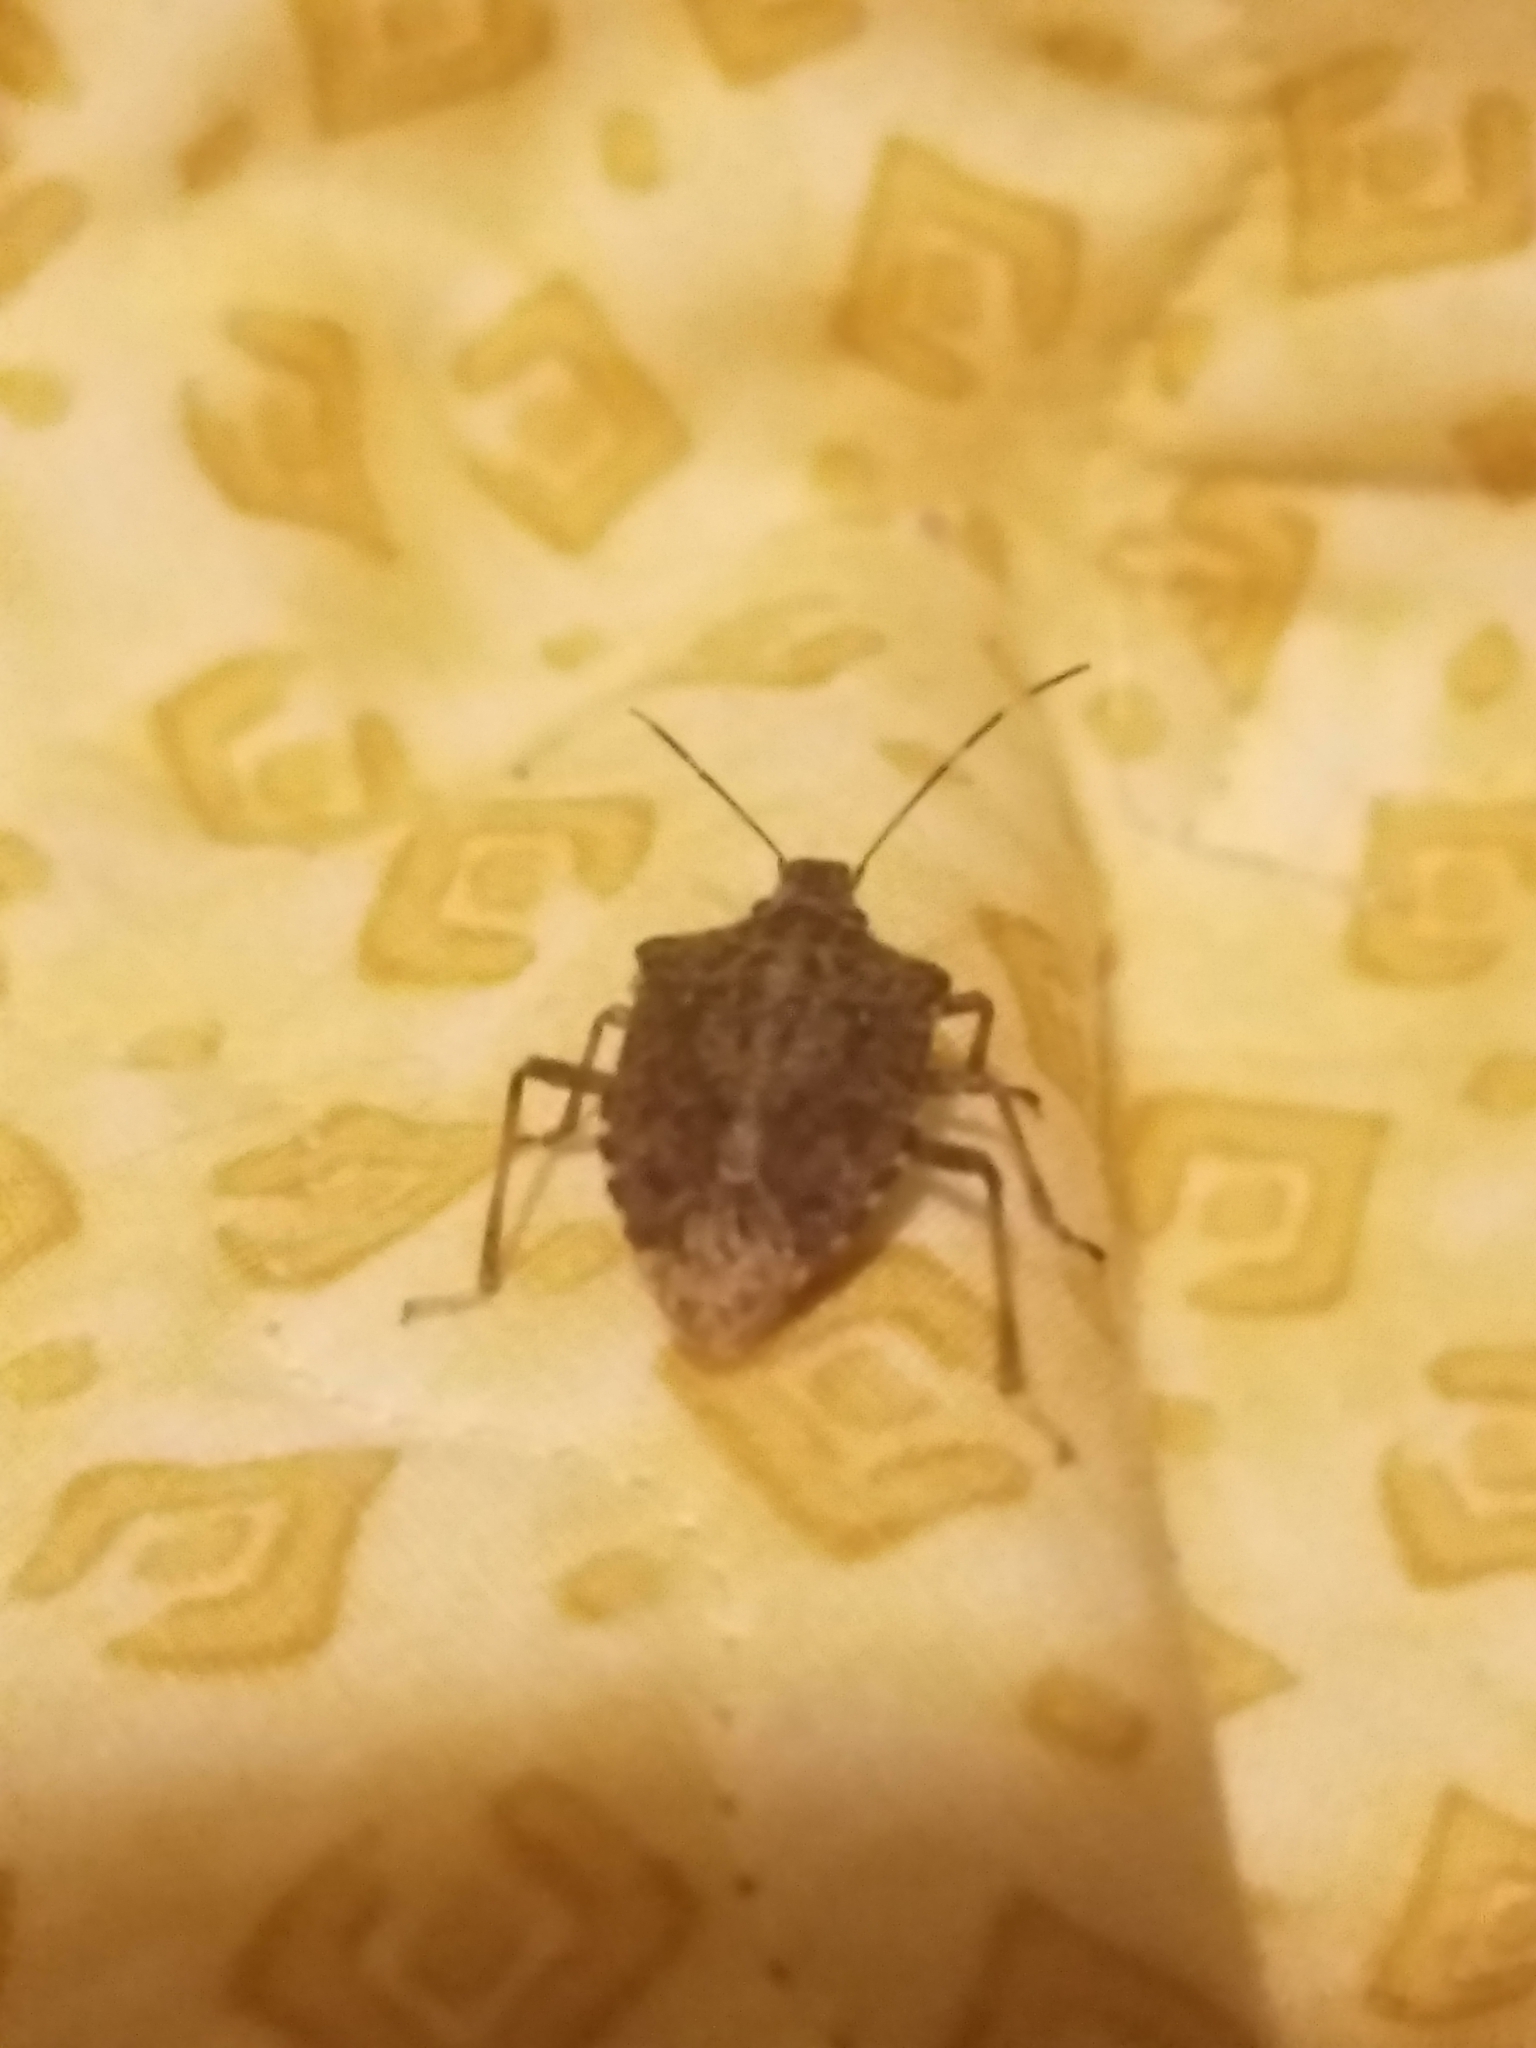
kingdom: Animalia
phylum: Arthropoda
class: Insecta
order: Hemiptera
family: Pentatomidae
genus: Halyomorpha
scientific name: Halyomorpha halys
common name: Brown marmorated stink bug
